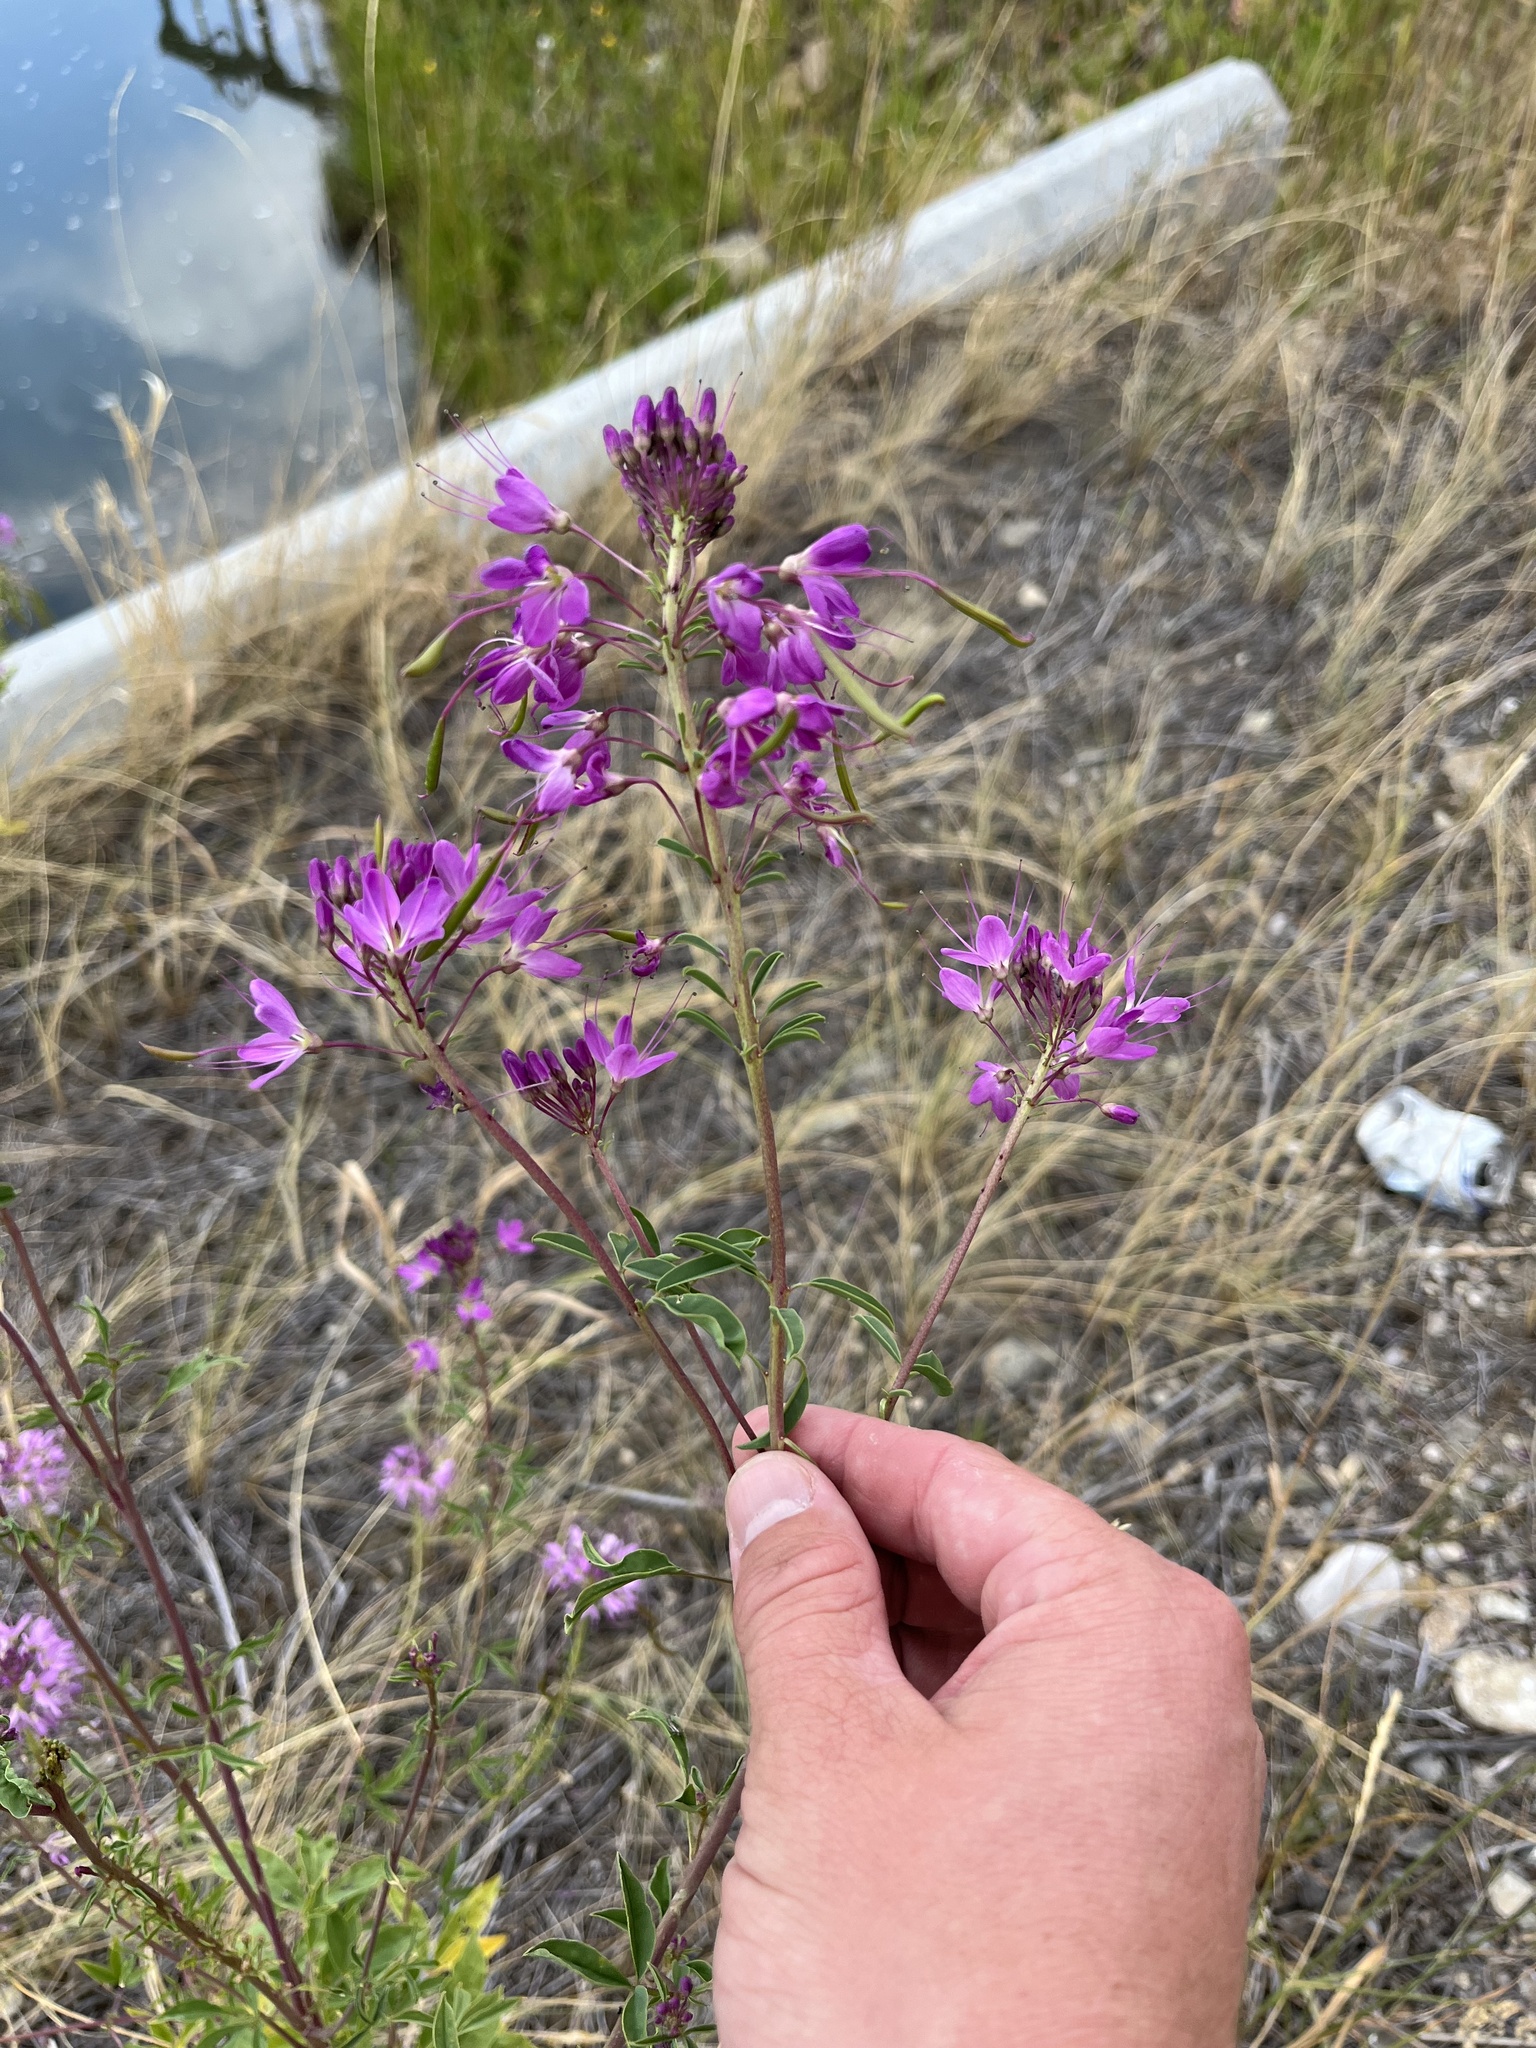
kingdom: Plantae
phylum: Tracheophyta
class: Magnoliopsida
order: Brassicales
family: Cleomaceae
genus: Cleomella
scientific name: Cleomella serrulata
